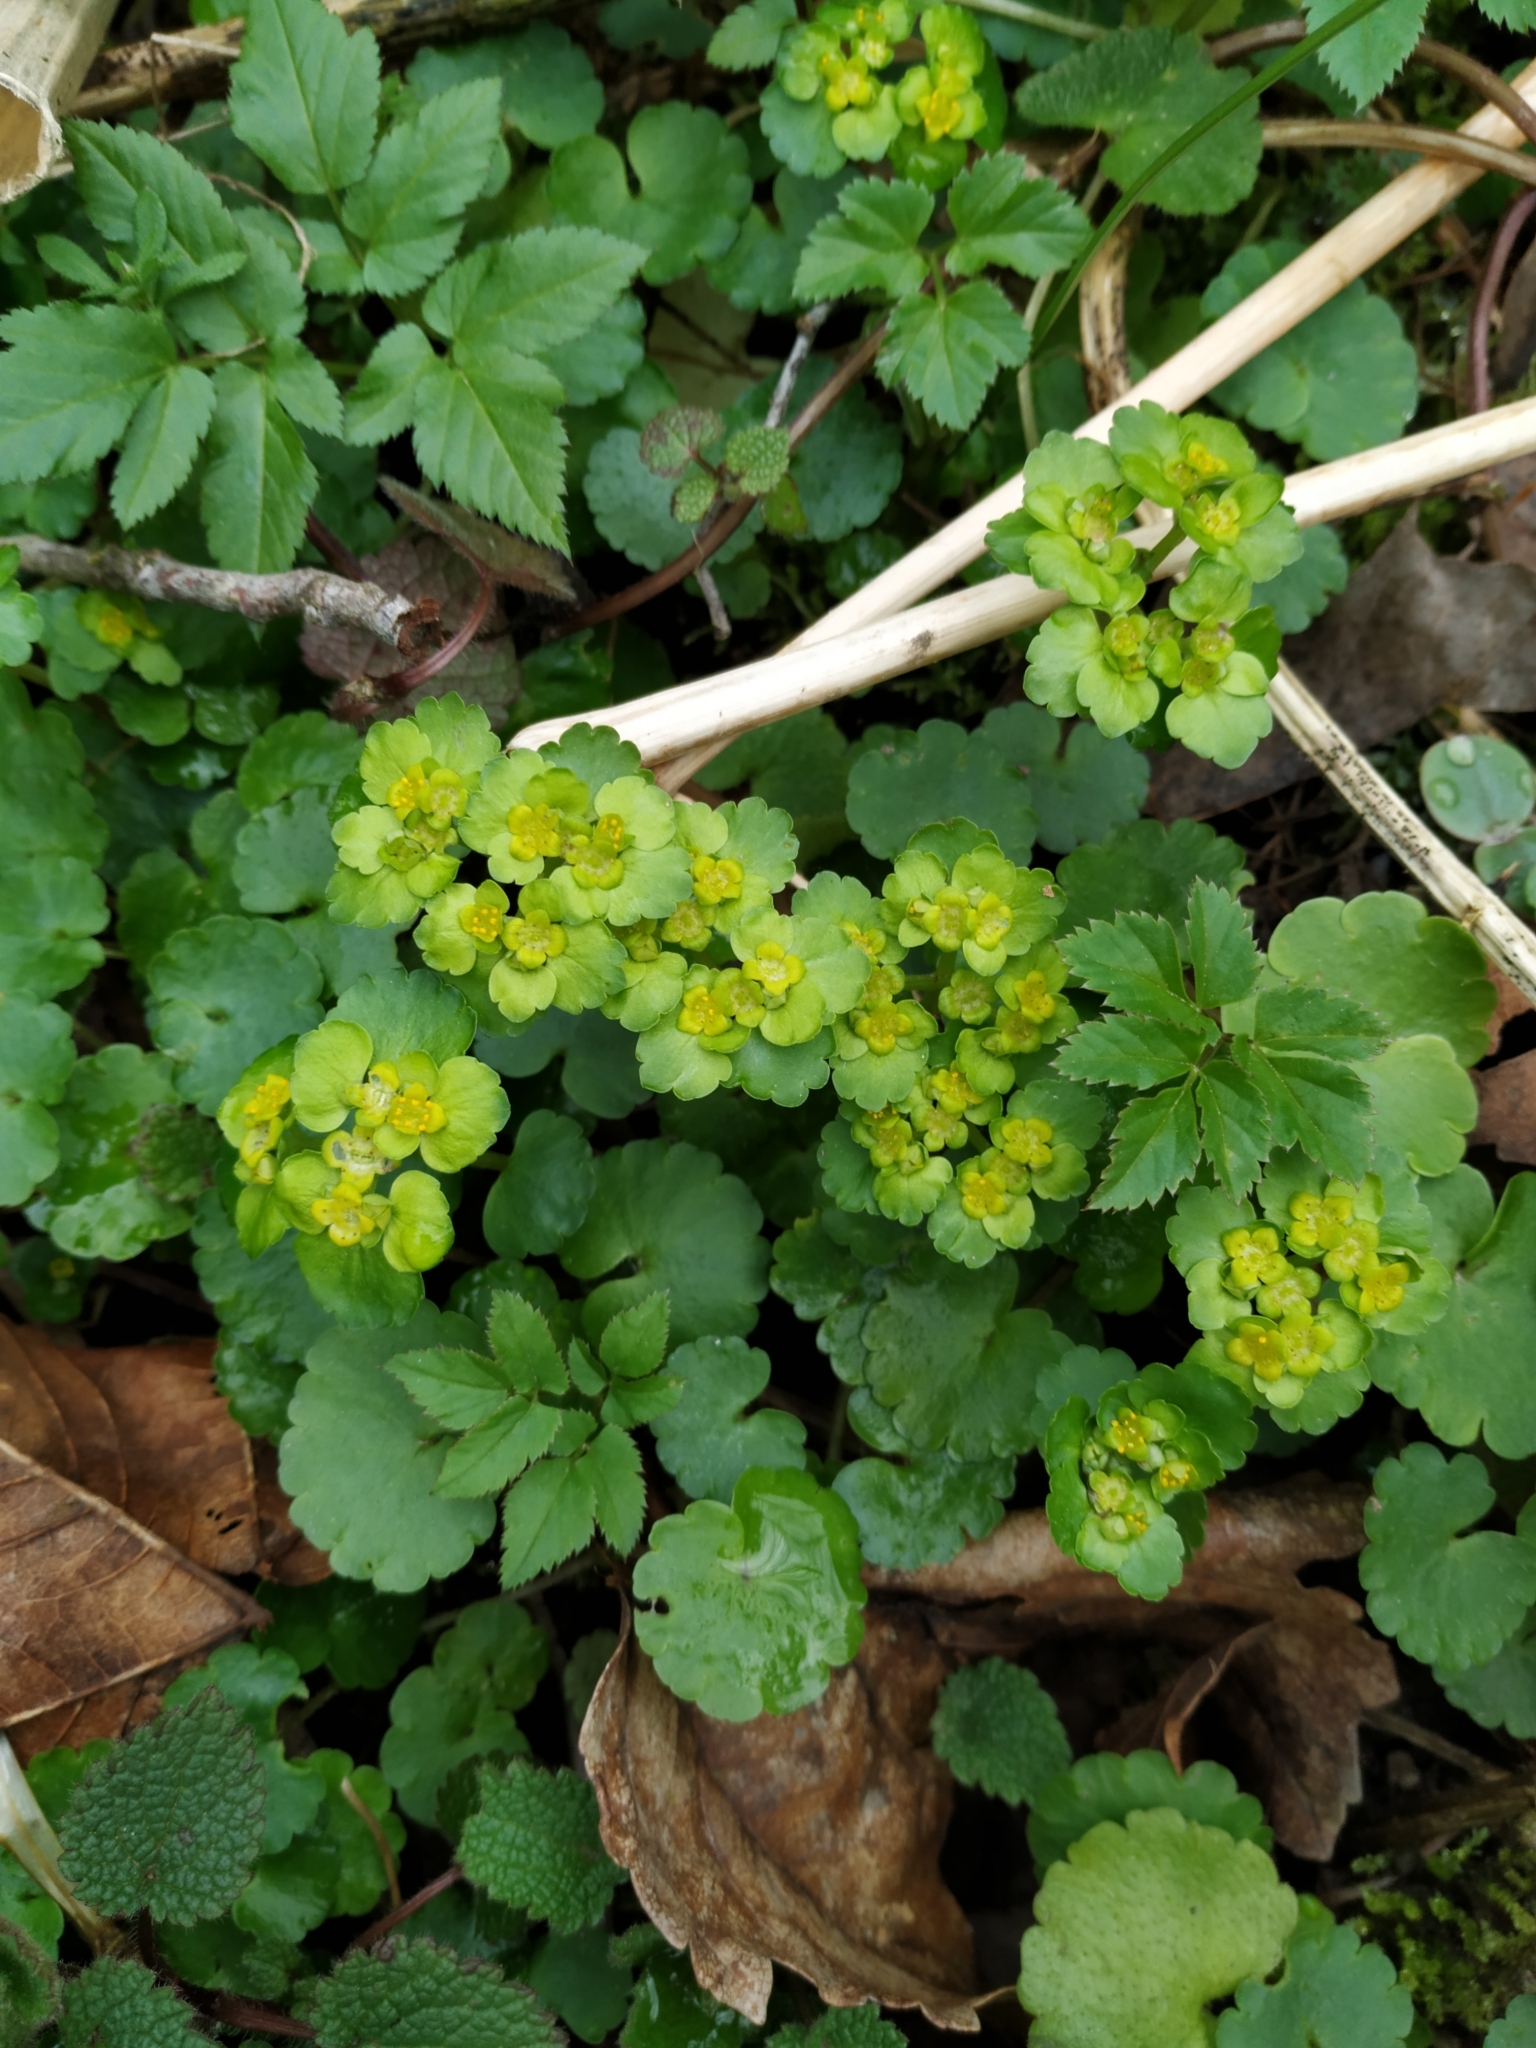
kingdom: Plantae
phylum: Tracheophyta
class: Magnoliopsida
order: Saxifragales
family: Saxifragaceae
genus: Chrysosplenium
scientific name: Chrysosplenium alternifolium
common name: Alternate-leaved golden-saxifrage
